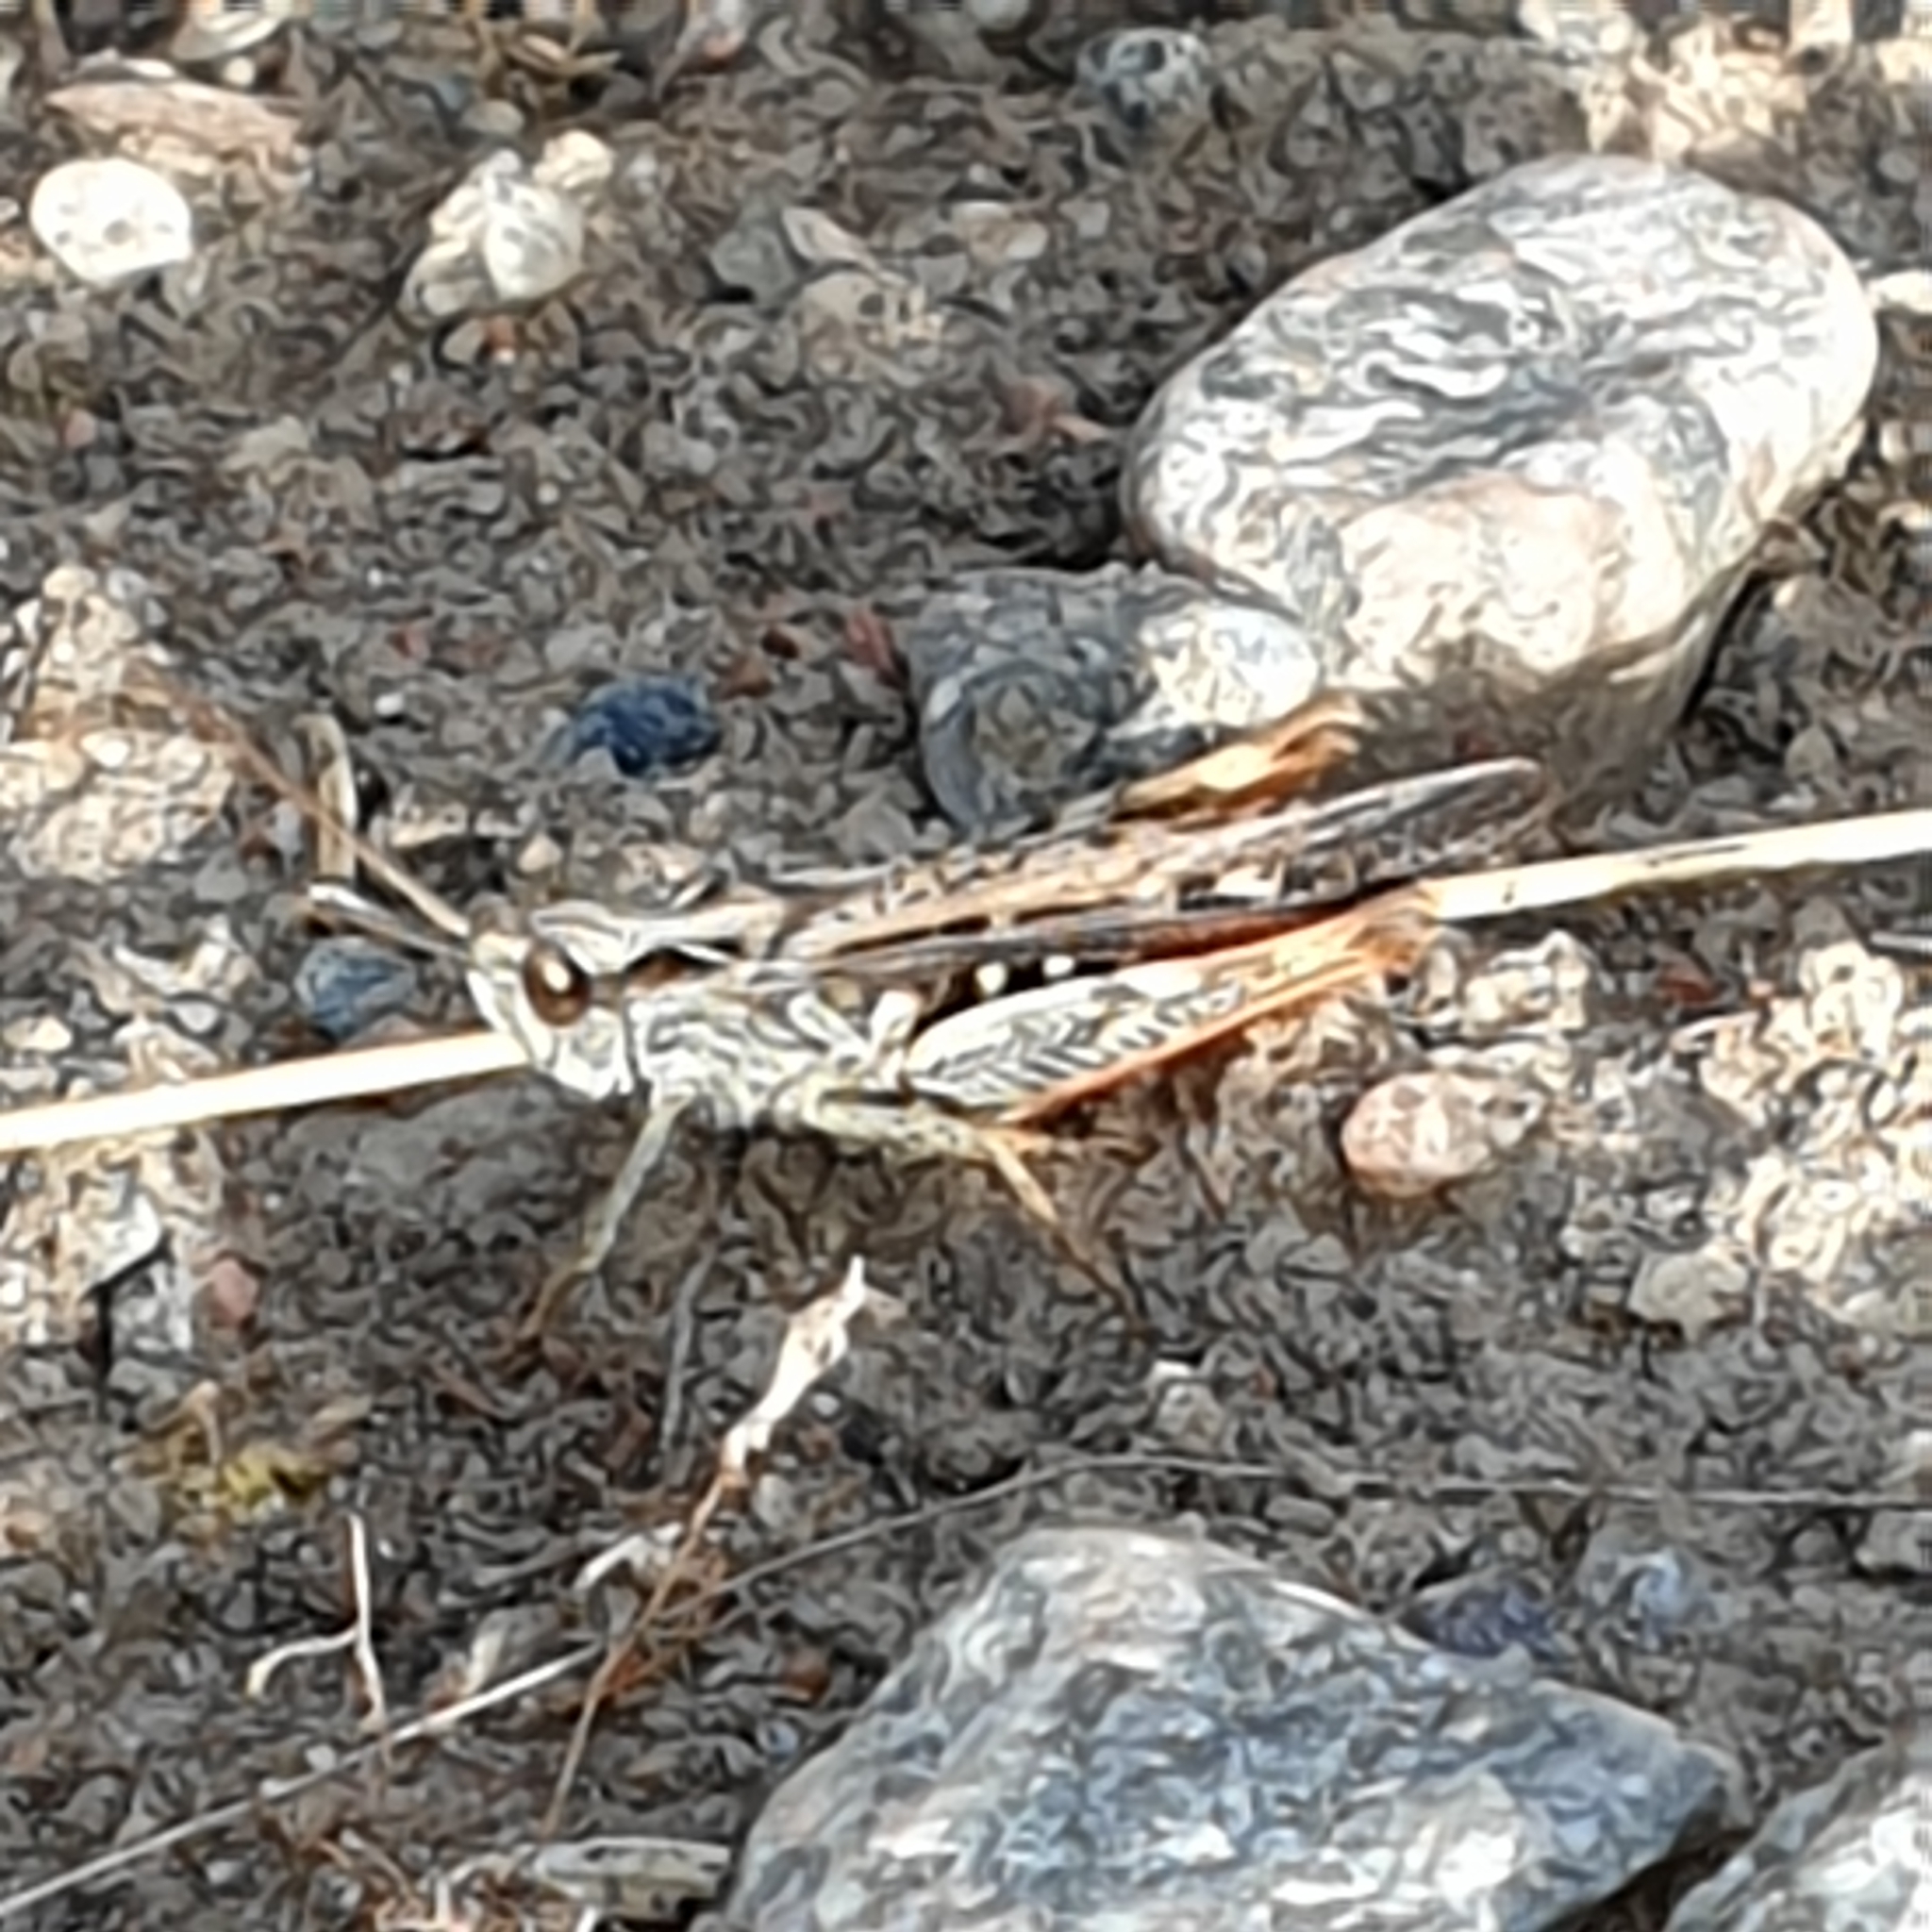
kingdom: Animalia
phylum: Arthropoda
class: Insecta
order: Orthoptera
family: Acrididae
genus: Chorthippus
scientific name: Chorthippus brunneus
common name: Field grasshopper
